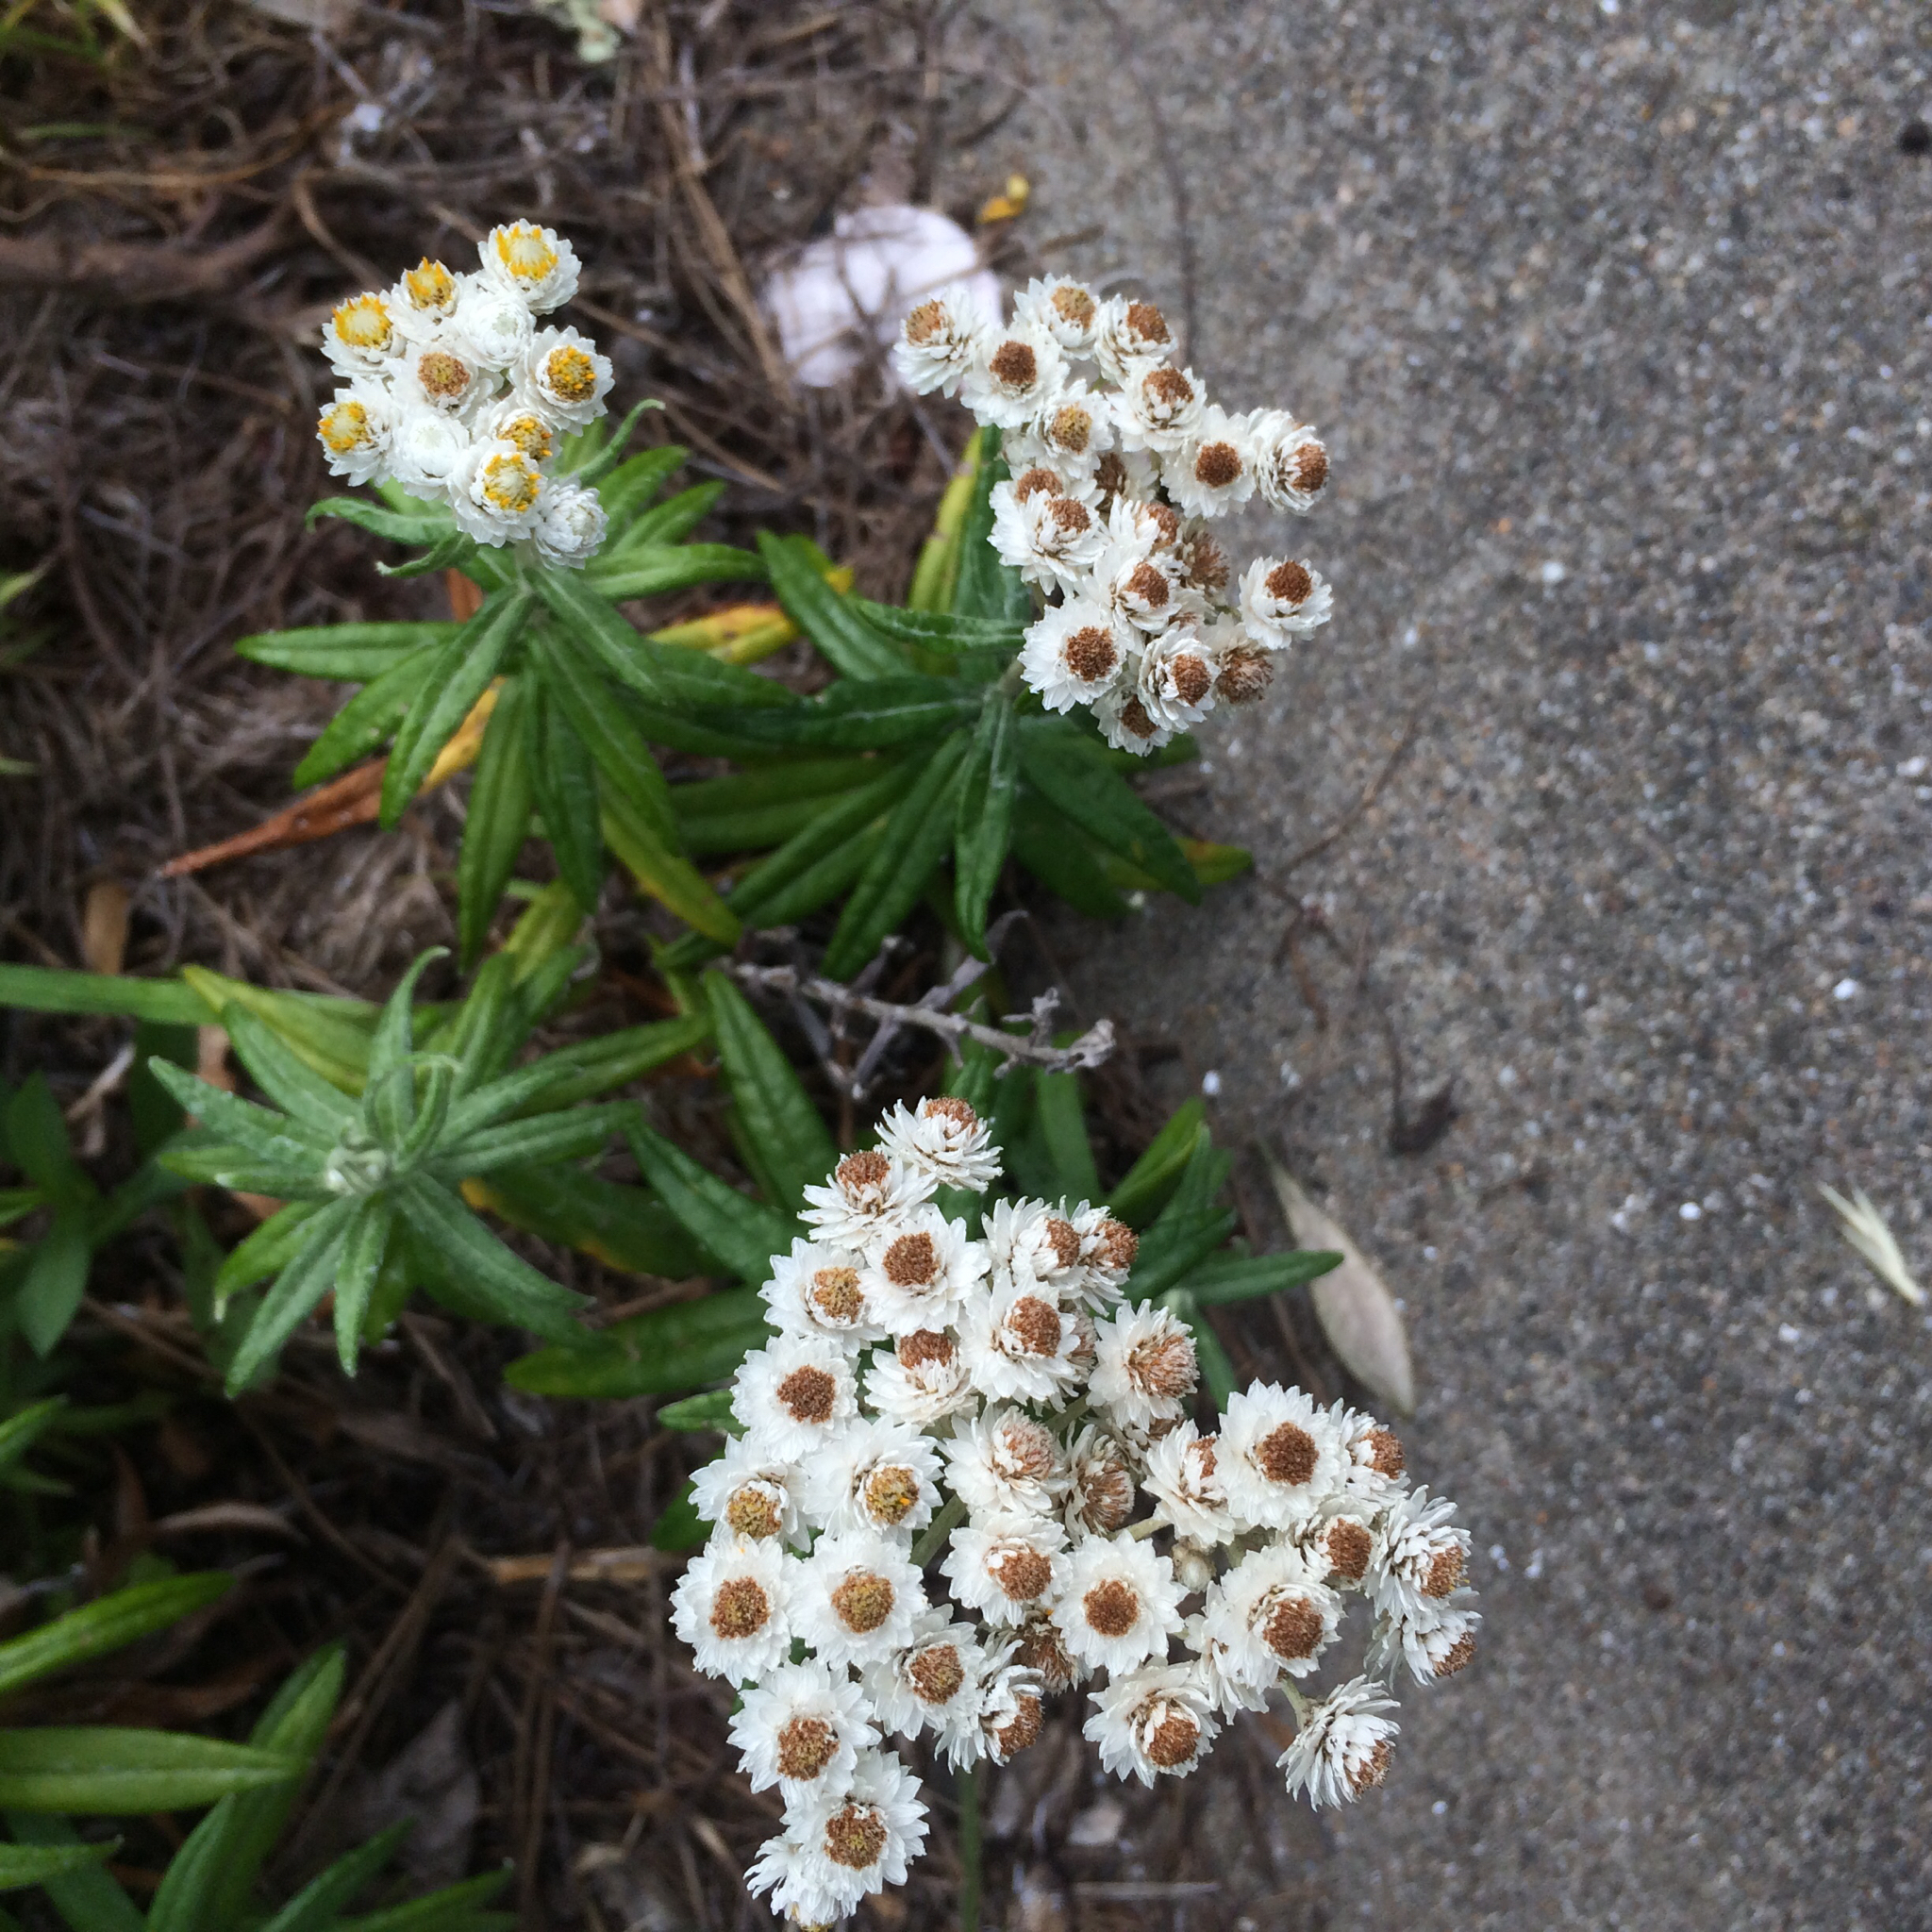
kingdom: Plantae
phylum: Tracheophyta
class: Magnoliopsida
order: Asterales
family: Asteraceae
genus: Anaphalis
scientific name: Anaphalis margaritacea
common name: Pearly everlasting
